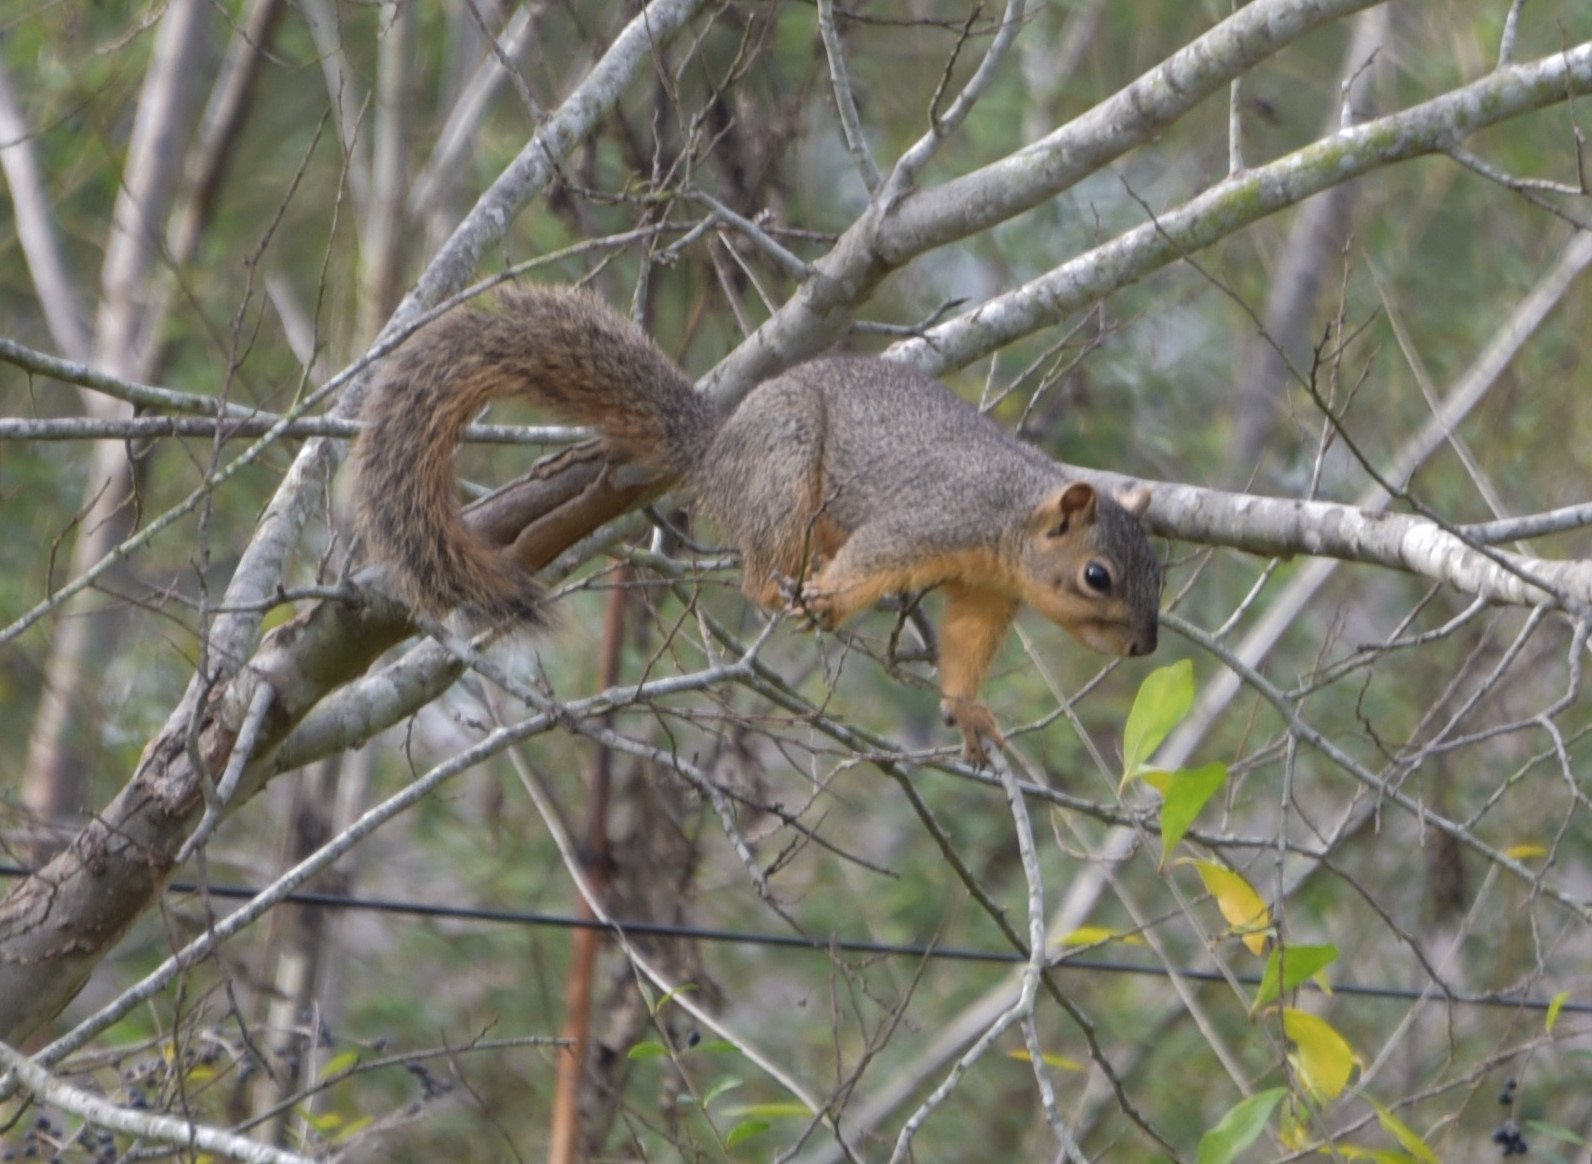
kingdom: Animalia
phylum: Chordata
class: Mammalia
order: Rodentia
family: Sciuridae
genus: Sciurus
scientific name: Sciurus niger
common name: Fox squirrel
